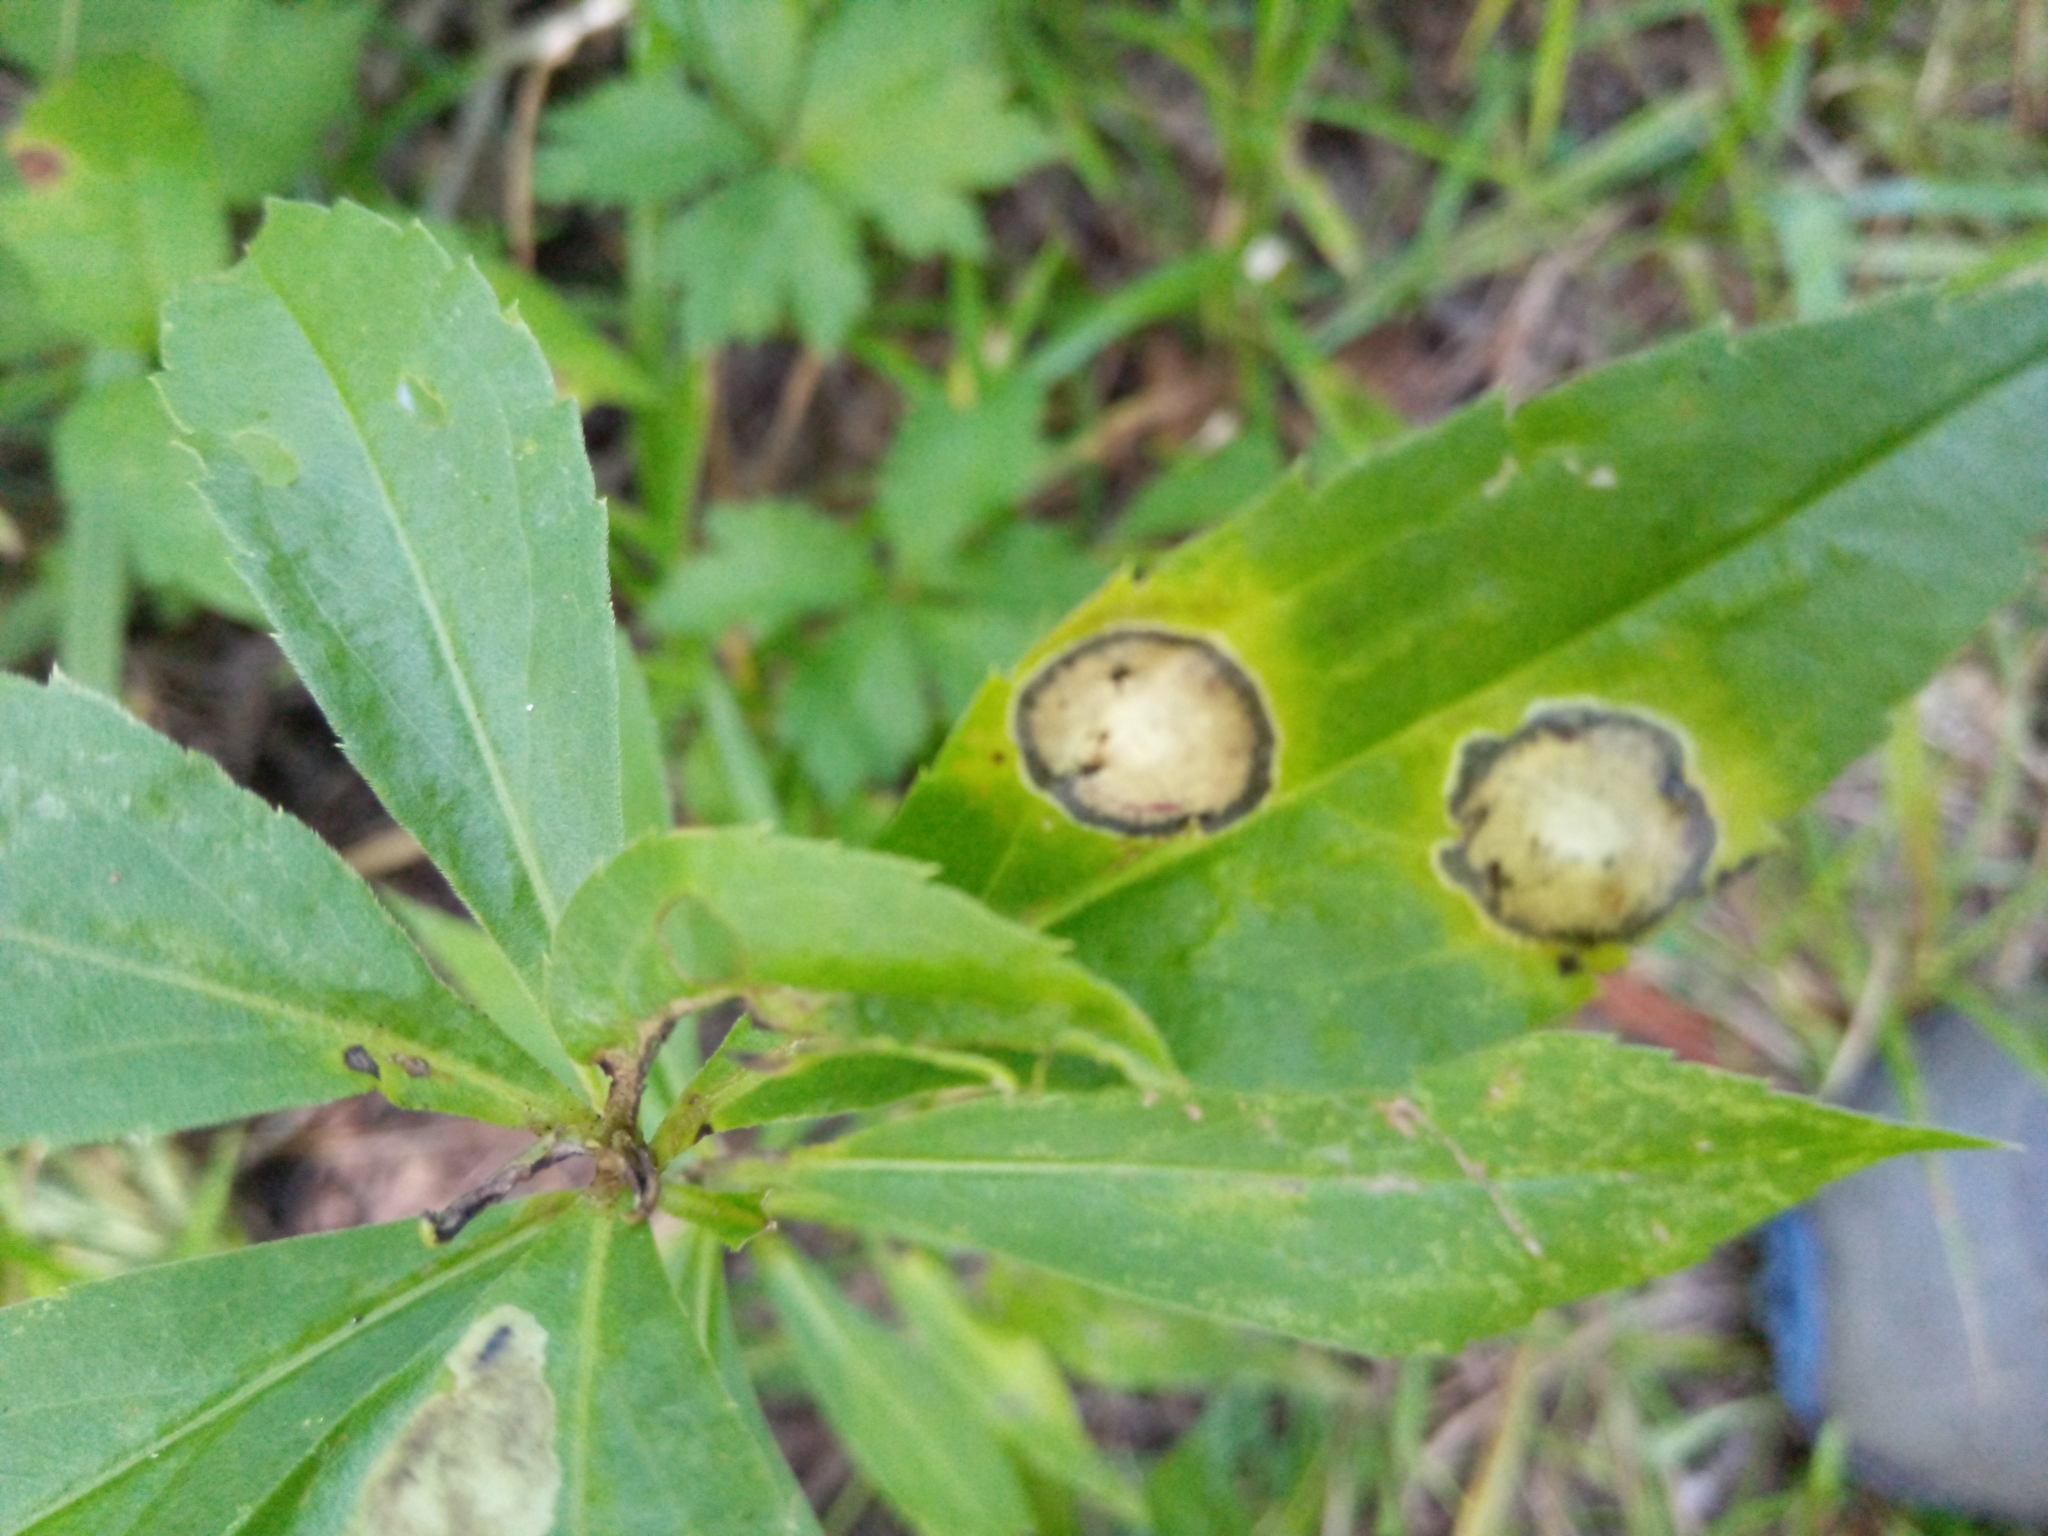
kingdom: Fungi
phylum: Ascomycota
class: Dothideomycetes
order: Botryosphaeriales
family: Botryosphaeriaceae
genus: Botryosphaeria
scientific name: Botryosphaeria dothidea
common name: Asteromyia gall midge fungus
